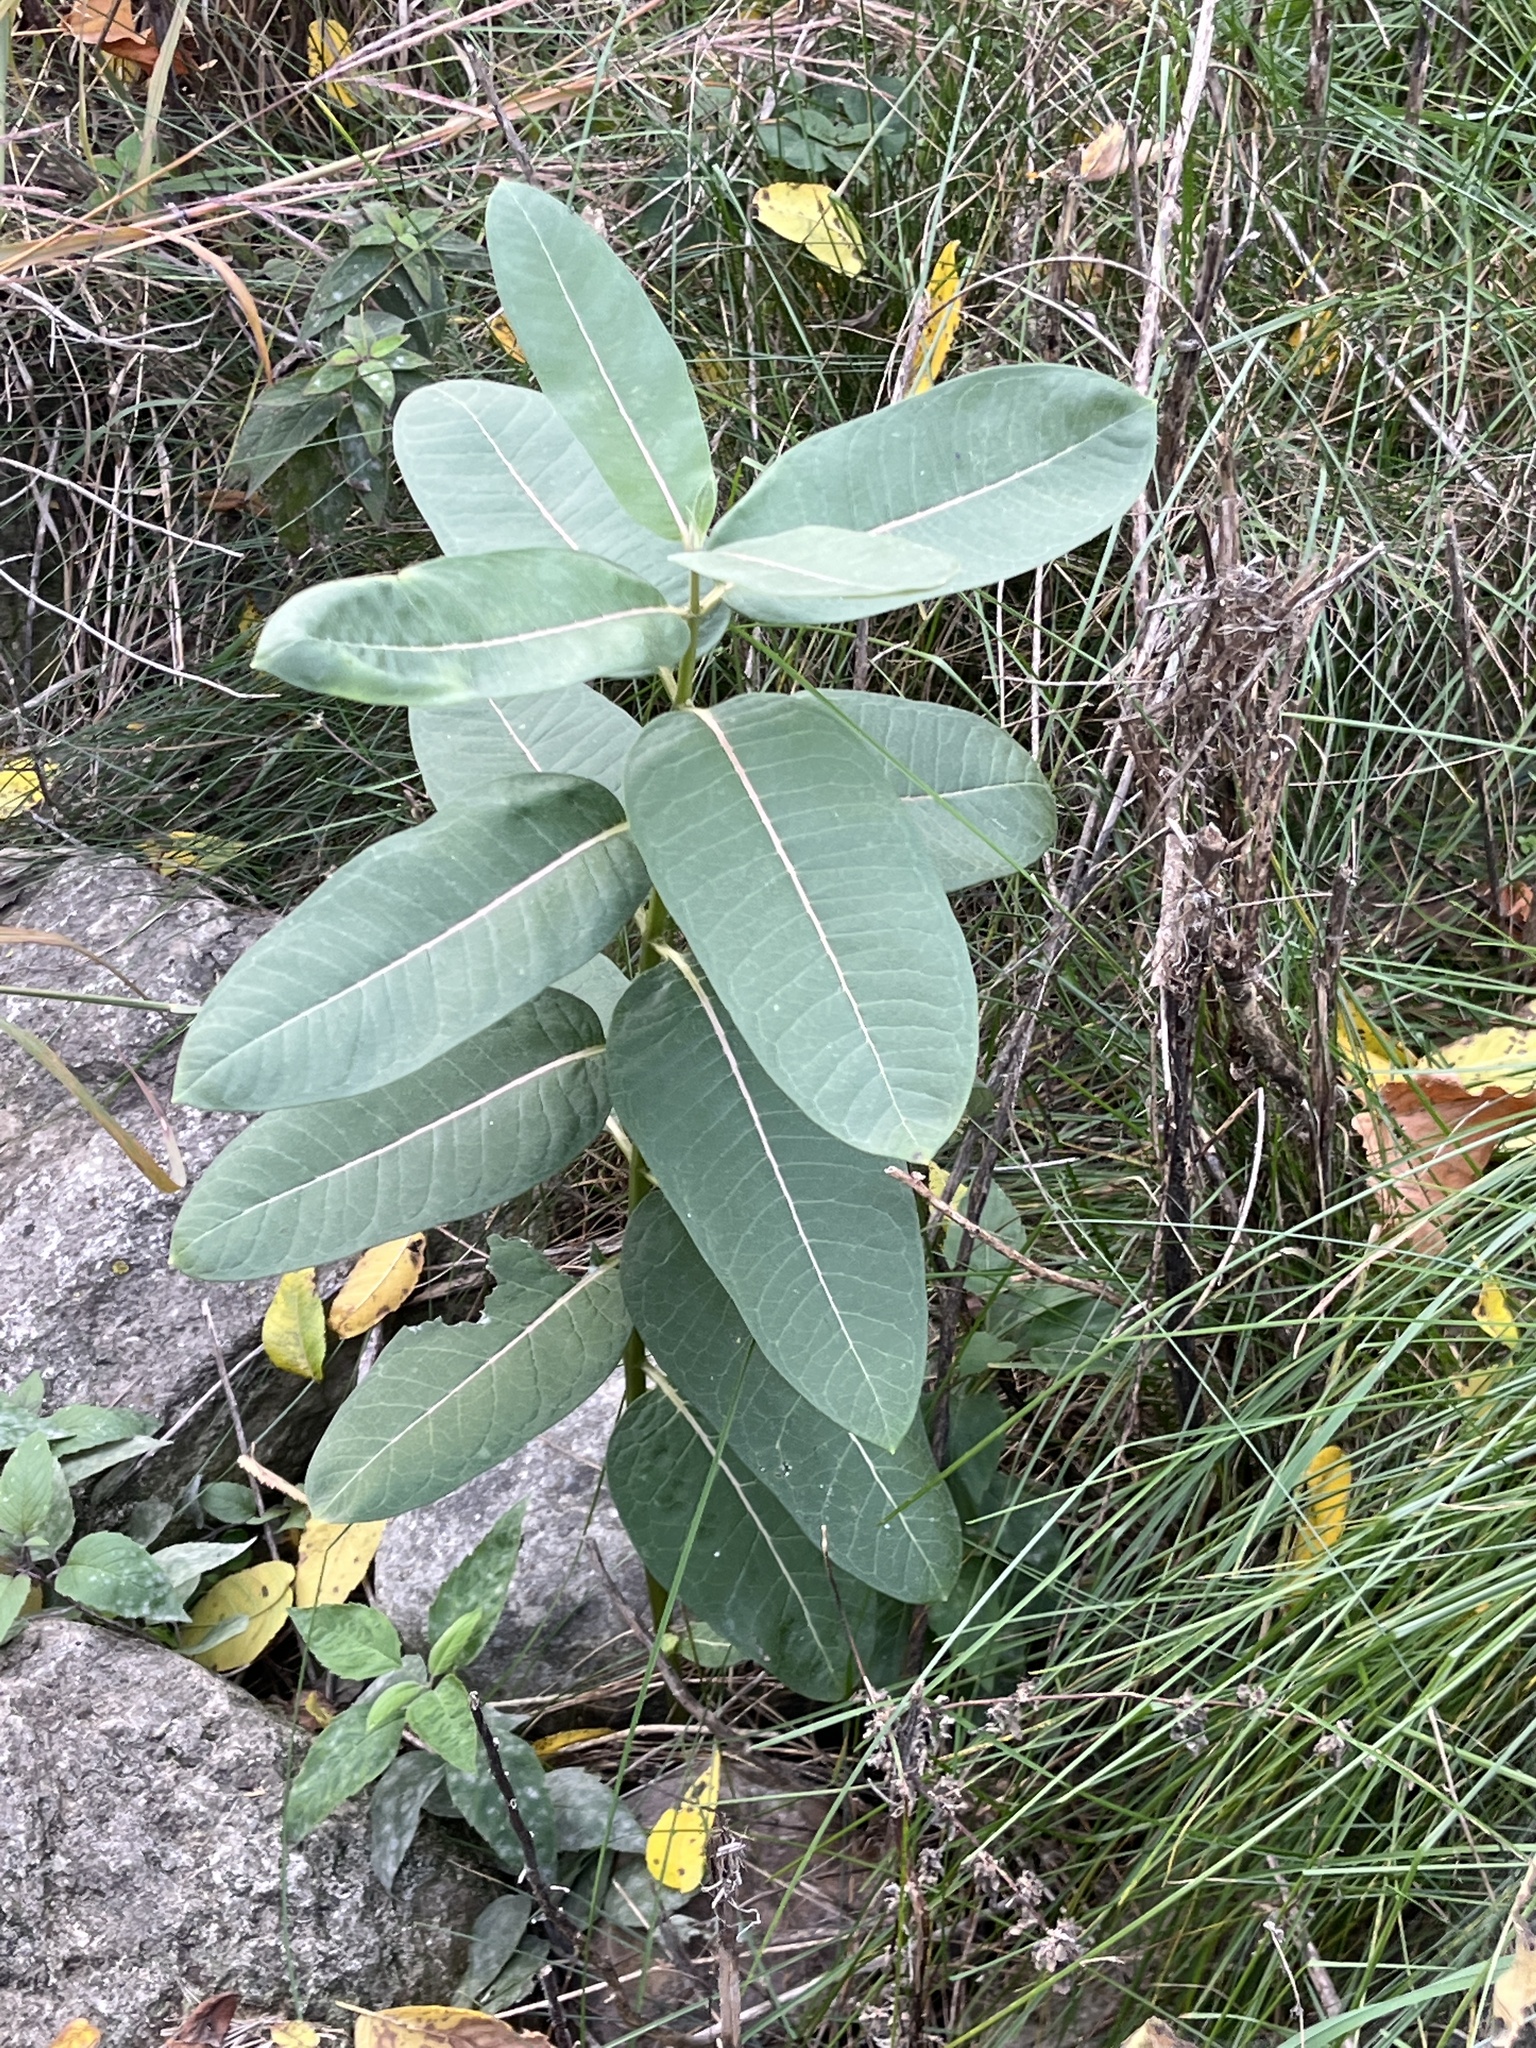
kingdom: Plantae
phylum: Tracheophyta
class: Magnoliopsida
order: Gentianales
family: Apocynaceae
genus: Asclepias
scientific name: Asclepias syriaca
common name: Common milkweed
